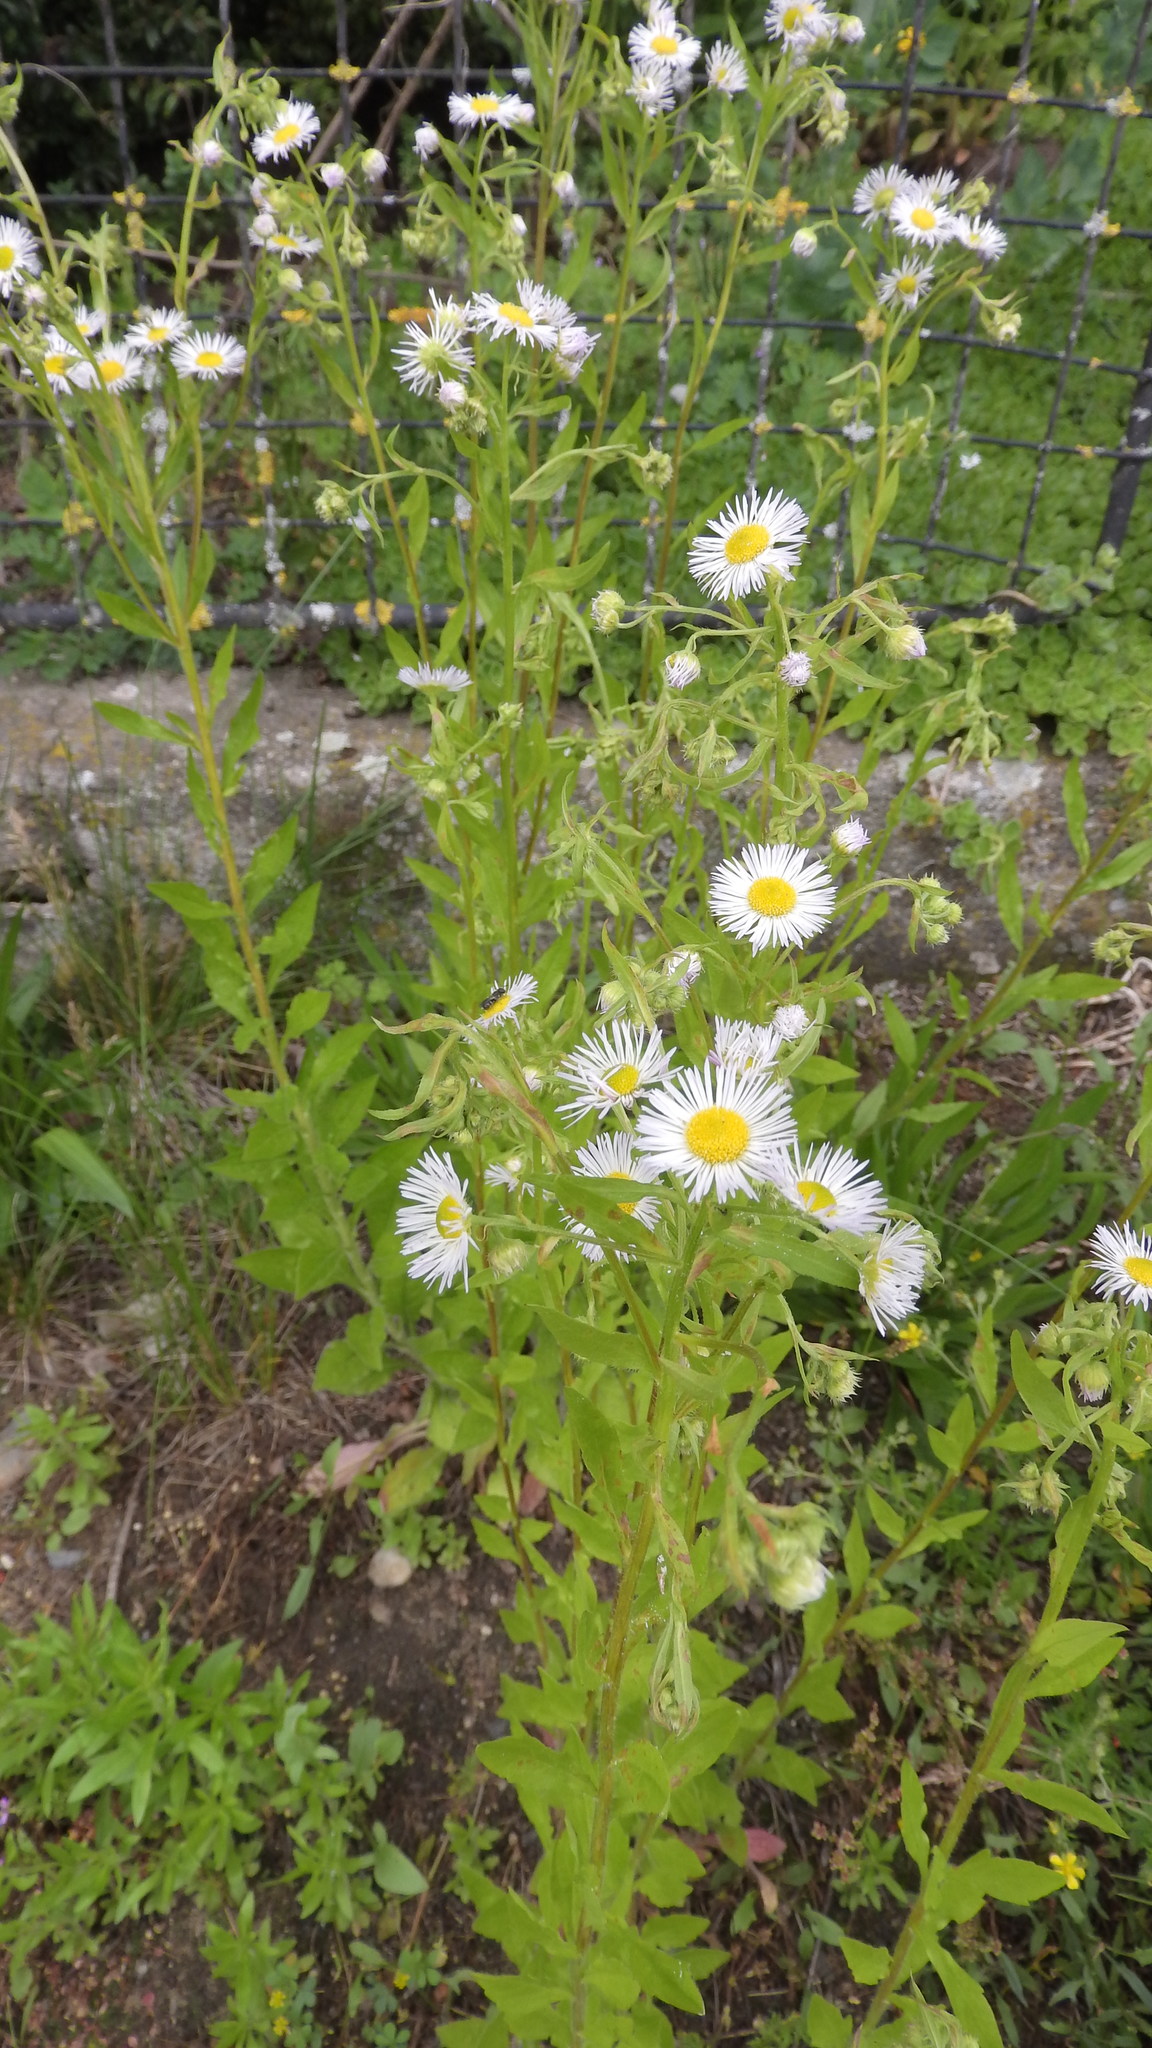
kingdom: Plantae
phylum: Tracheophyta
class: Magnoliopsida
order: Asterales
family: Asteraceae
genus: Erigeron
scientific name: Erigeron annuus
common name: Tall fleabane
